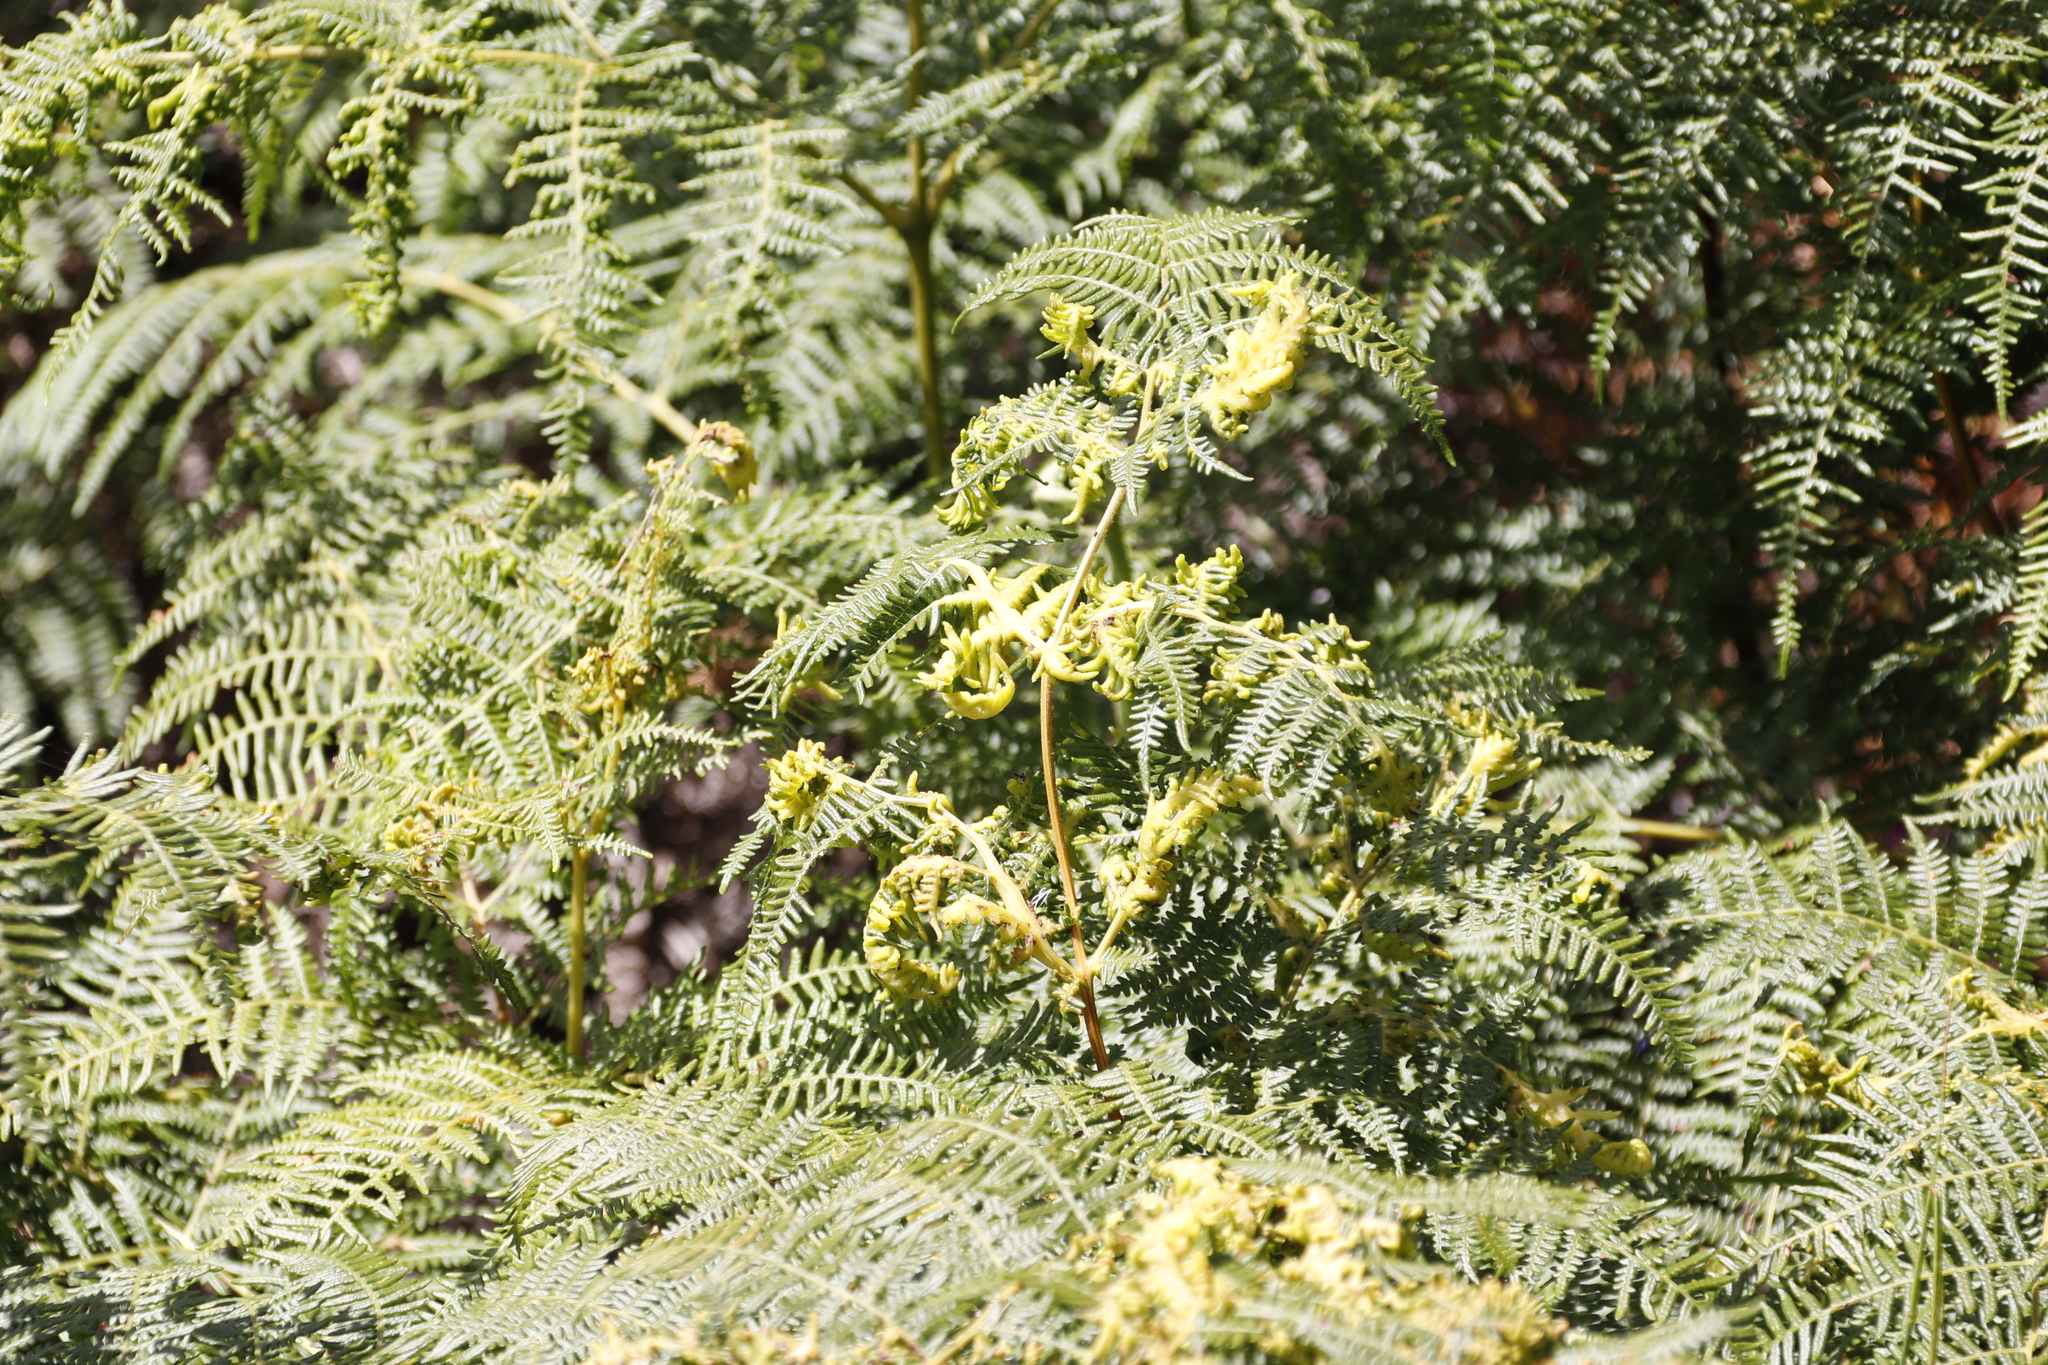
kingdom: Plantae
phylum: Tracheophyta
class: Polypodiopsida
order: Polypodiales
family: Dennstaedtiaceae
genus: Pteridium
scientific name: Pteridium aquilinum
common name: Bracken
